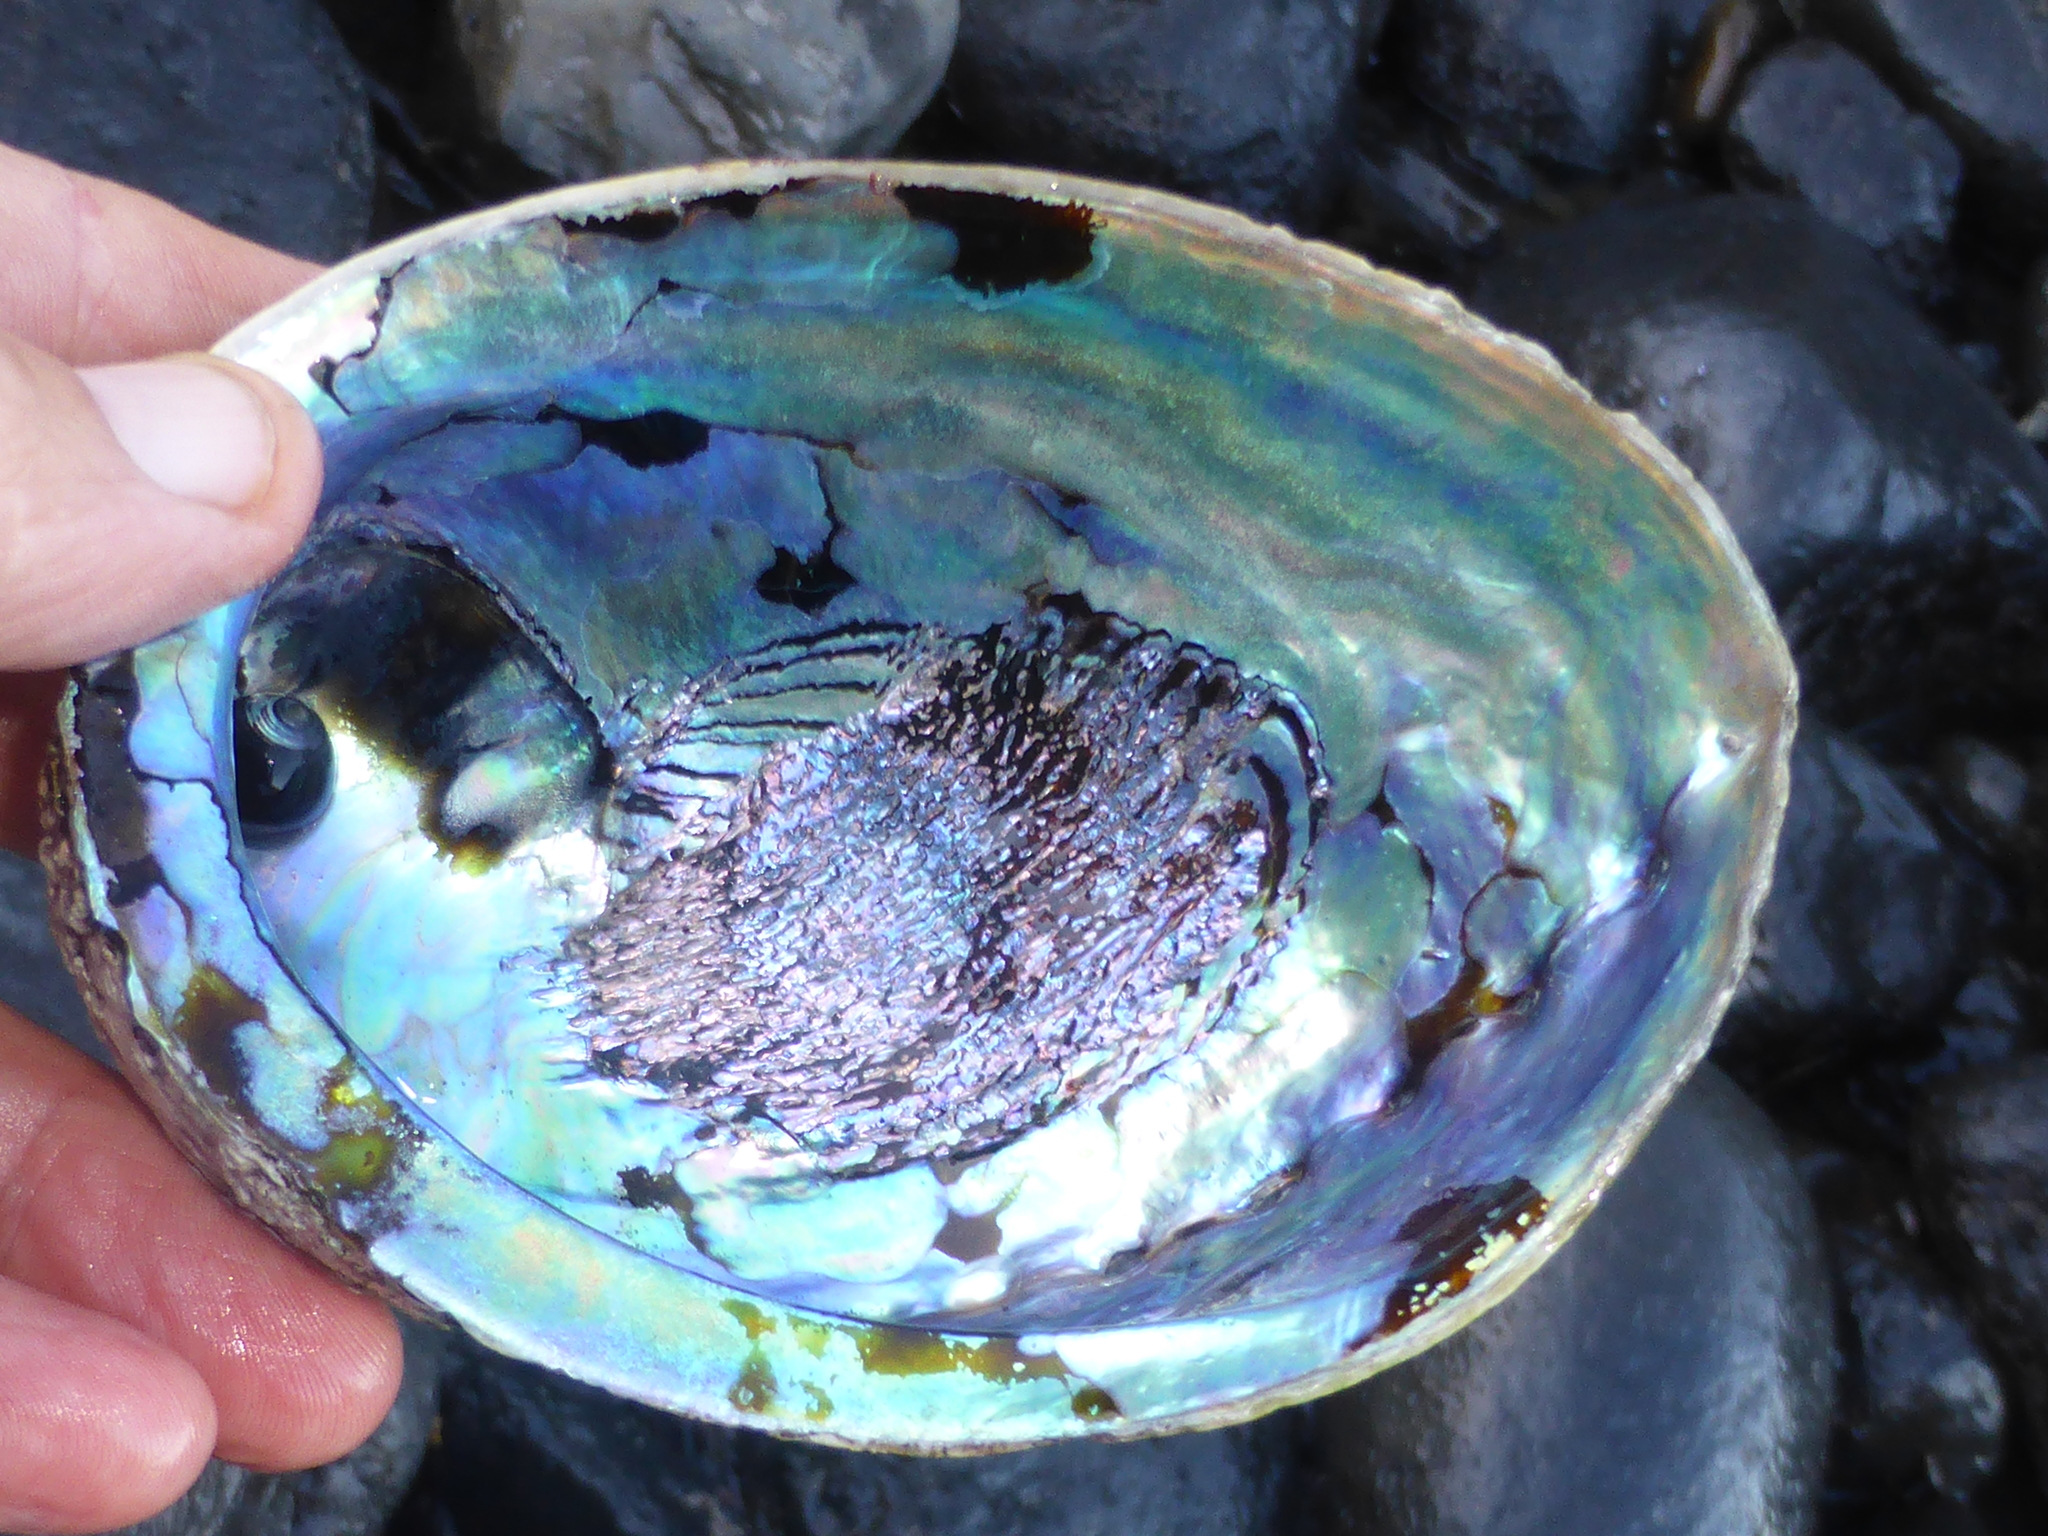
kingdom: Animalia
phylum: Mollusca
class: Gastropoda
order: Lepetellida
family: Haliotidae
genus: Haliotis
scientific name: Haliotis iris
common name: Abalone
